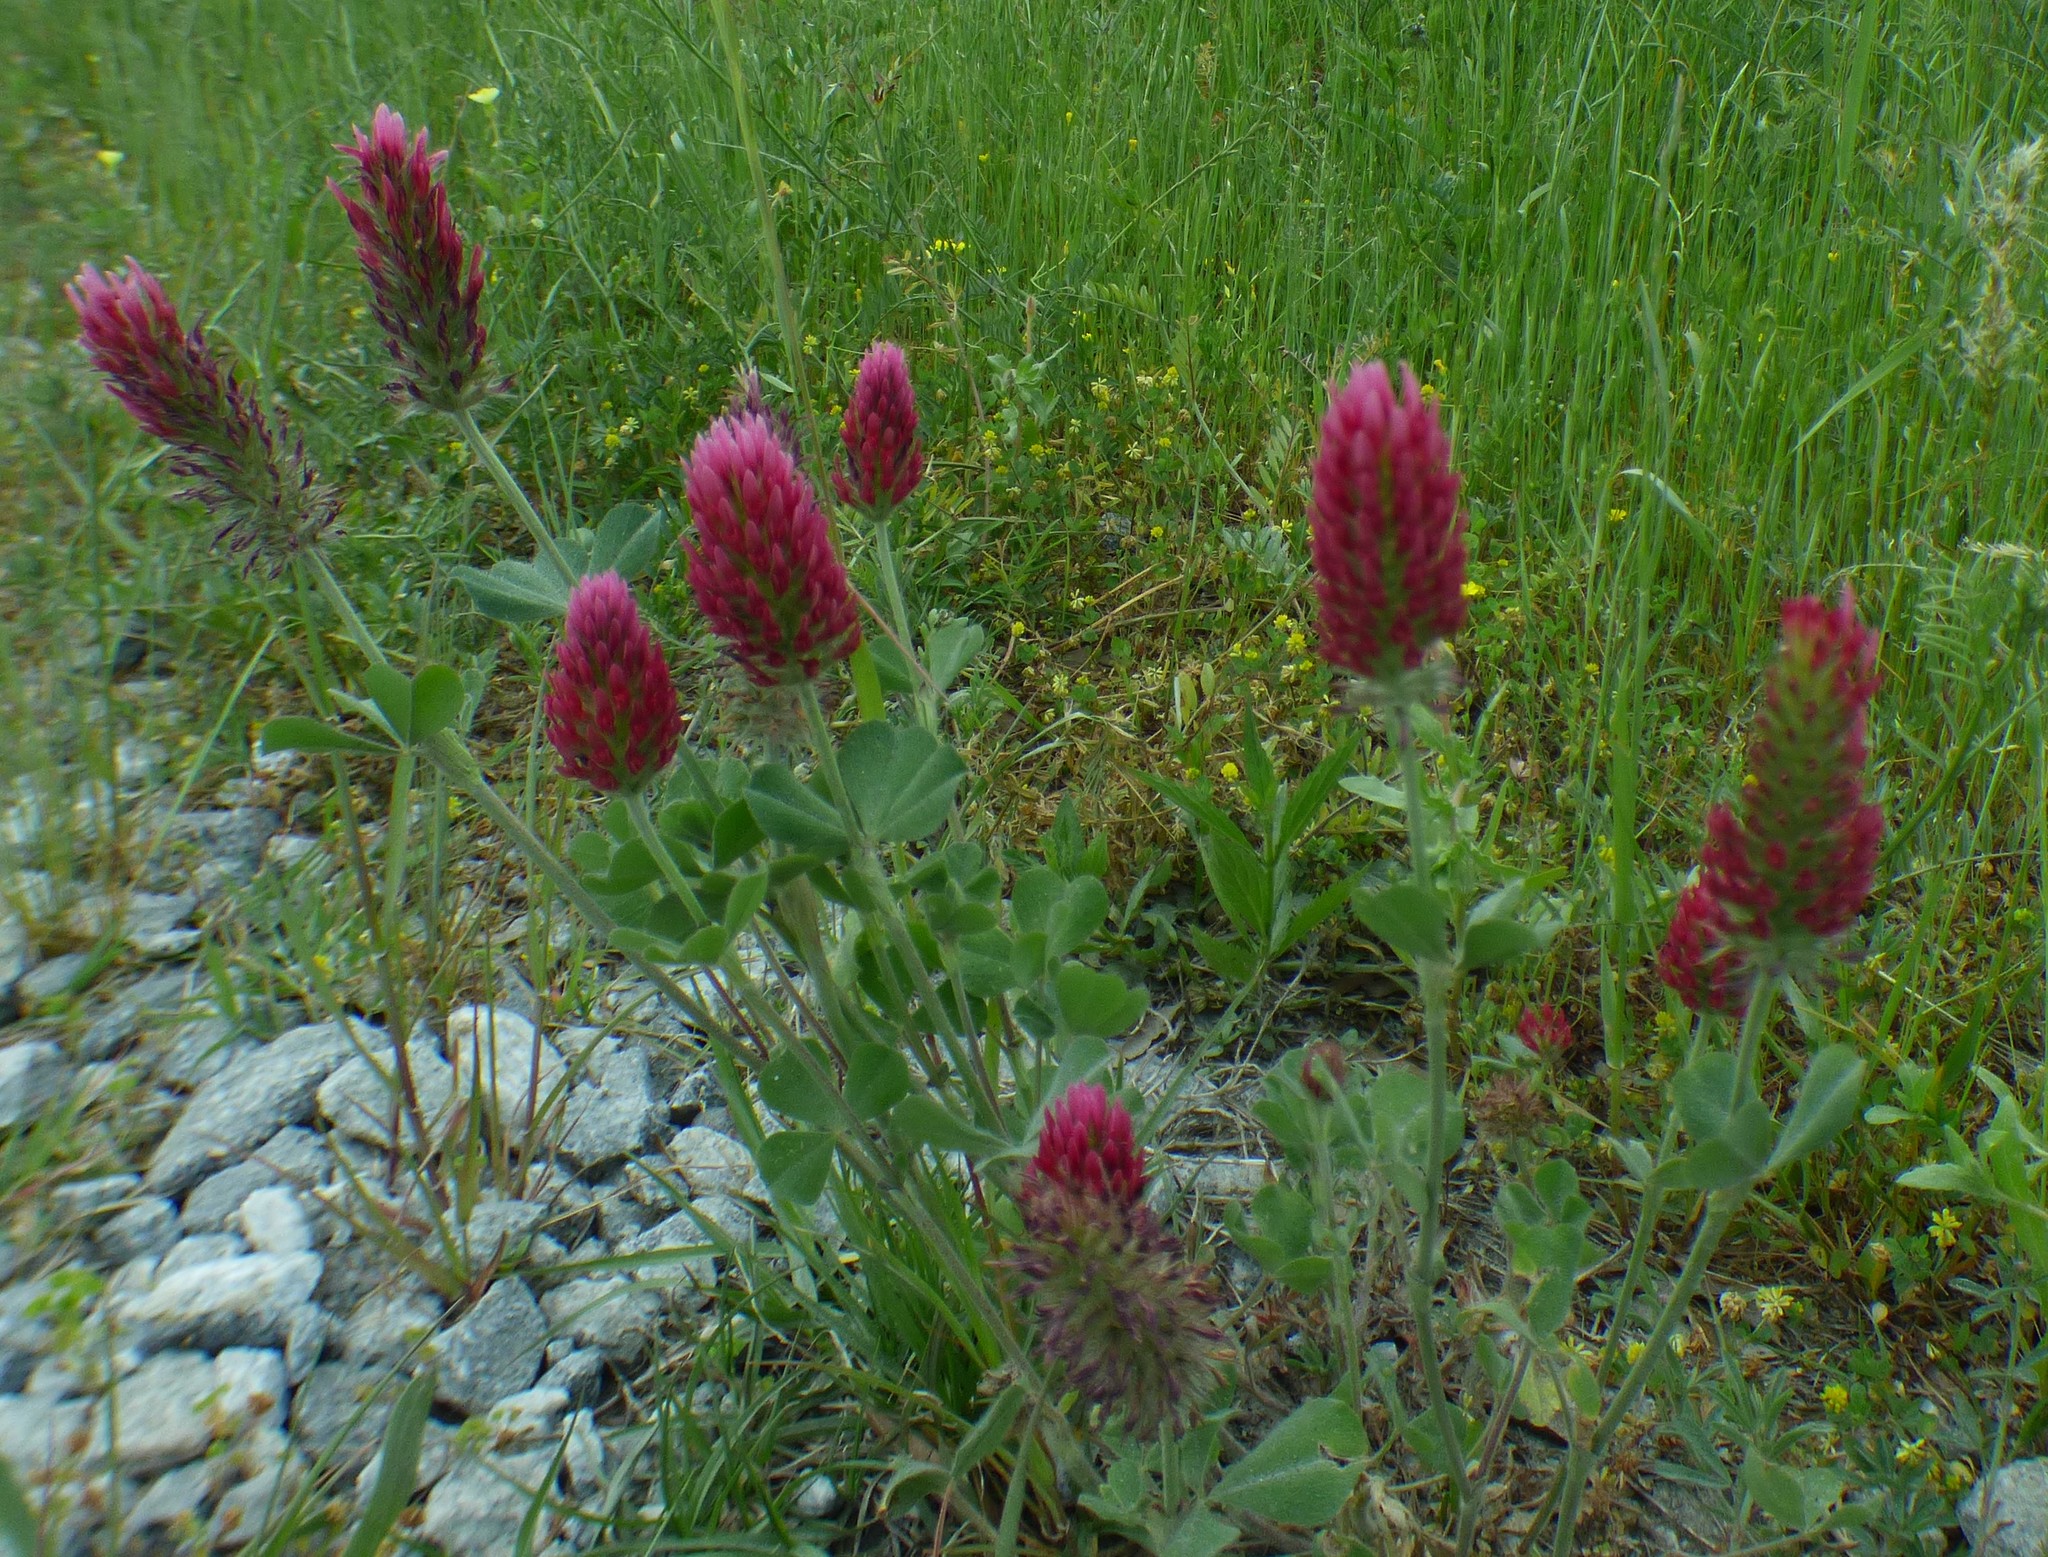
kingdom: Plantae
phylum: Tracheophyta
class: Magnoliopsida
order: Fabales
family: Fabaceae
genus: Trifolium
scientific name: Trifolium incarnatum
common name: Crimson clover
